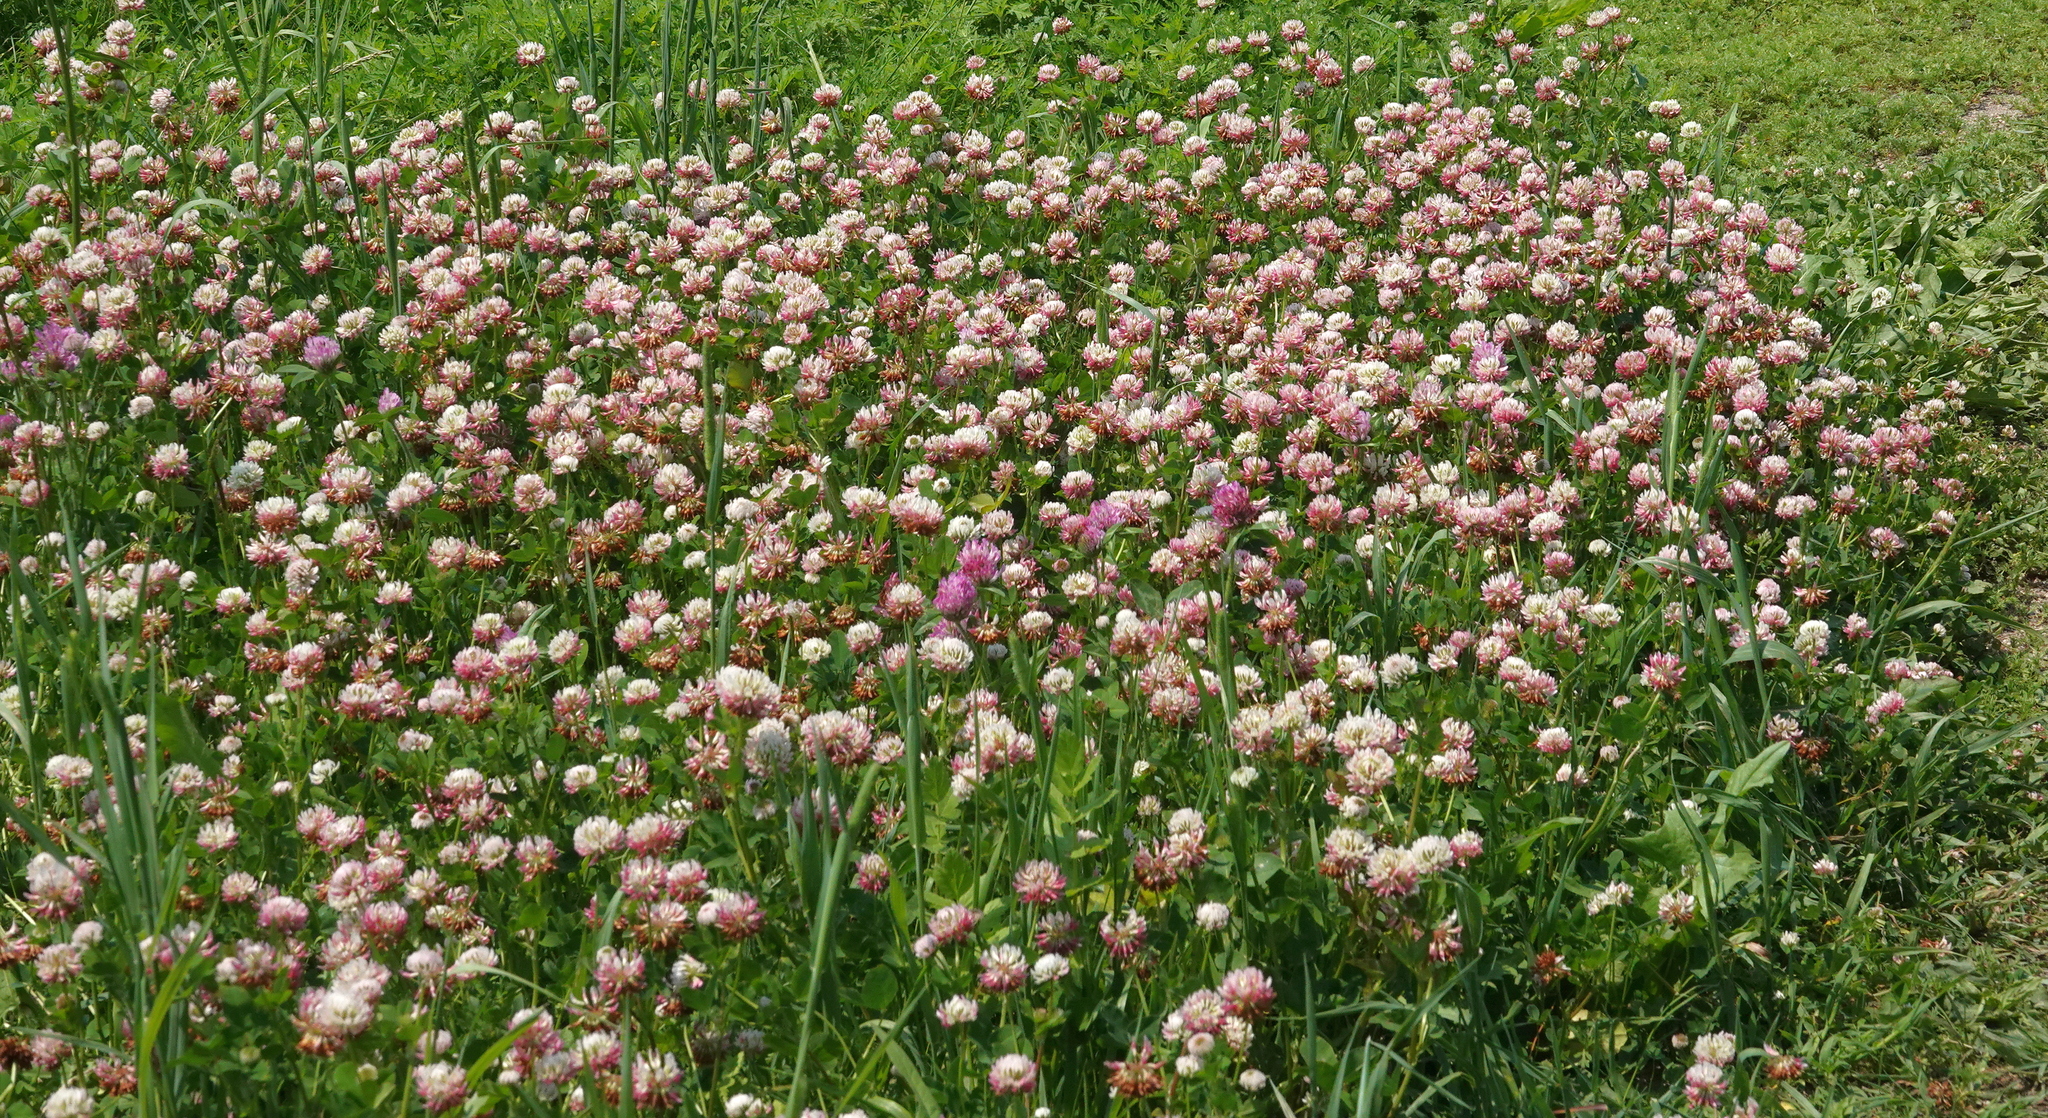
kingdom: Plantae
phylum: Tracheophyta
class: Magnoliopsida
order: Fabales
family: Fabaceae
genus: Trifolium
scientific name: Trifolium hybridum
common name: Alsike clover
